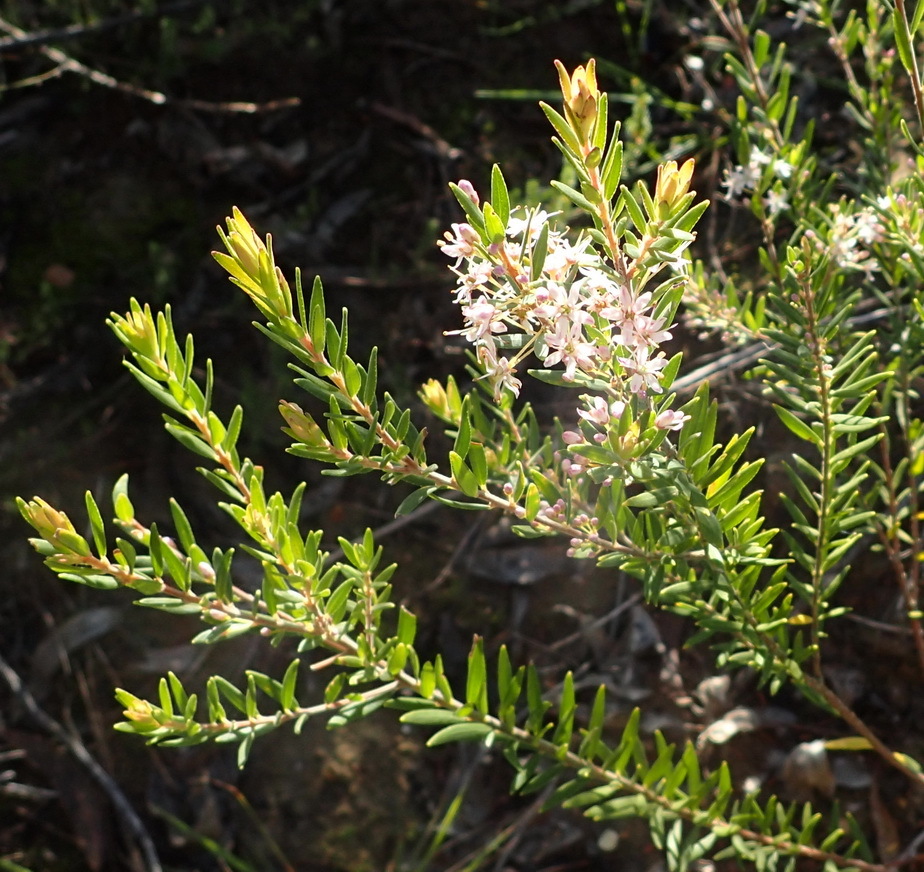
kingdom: Plantae
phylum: Tracheophyta
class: Magnoliopsida
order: Sapindales
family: Rutaceae
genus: Agathosma
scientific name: Agathosma ovata
